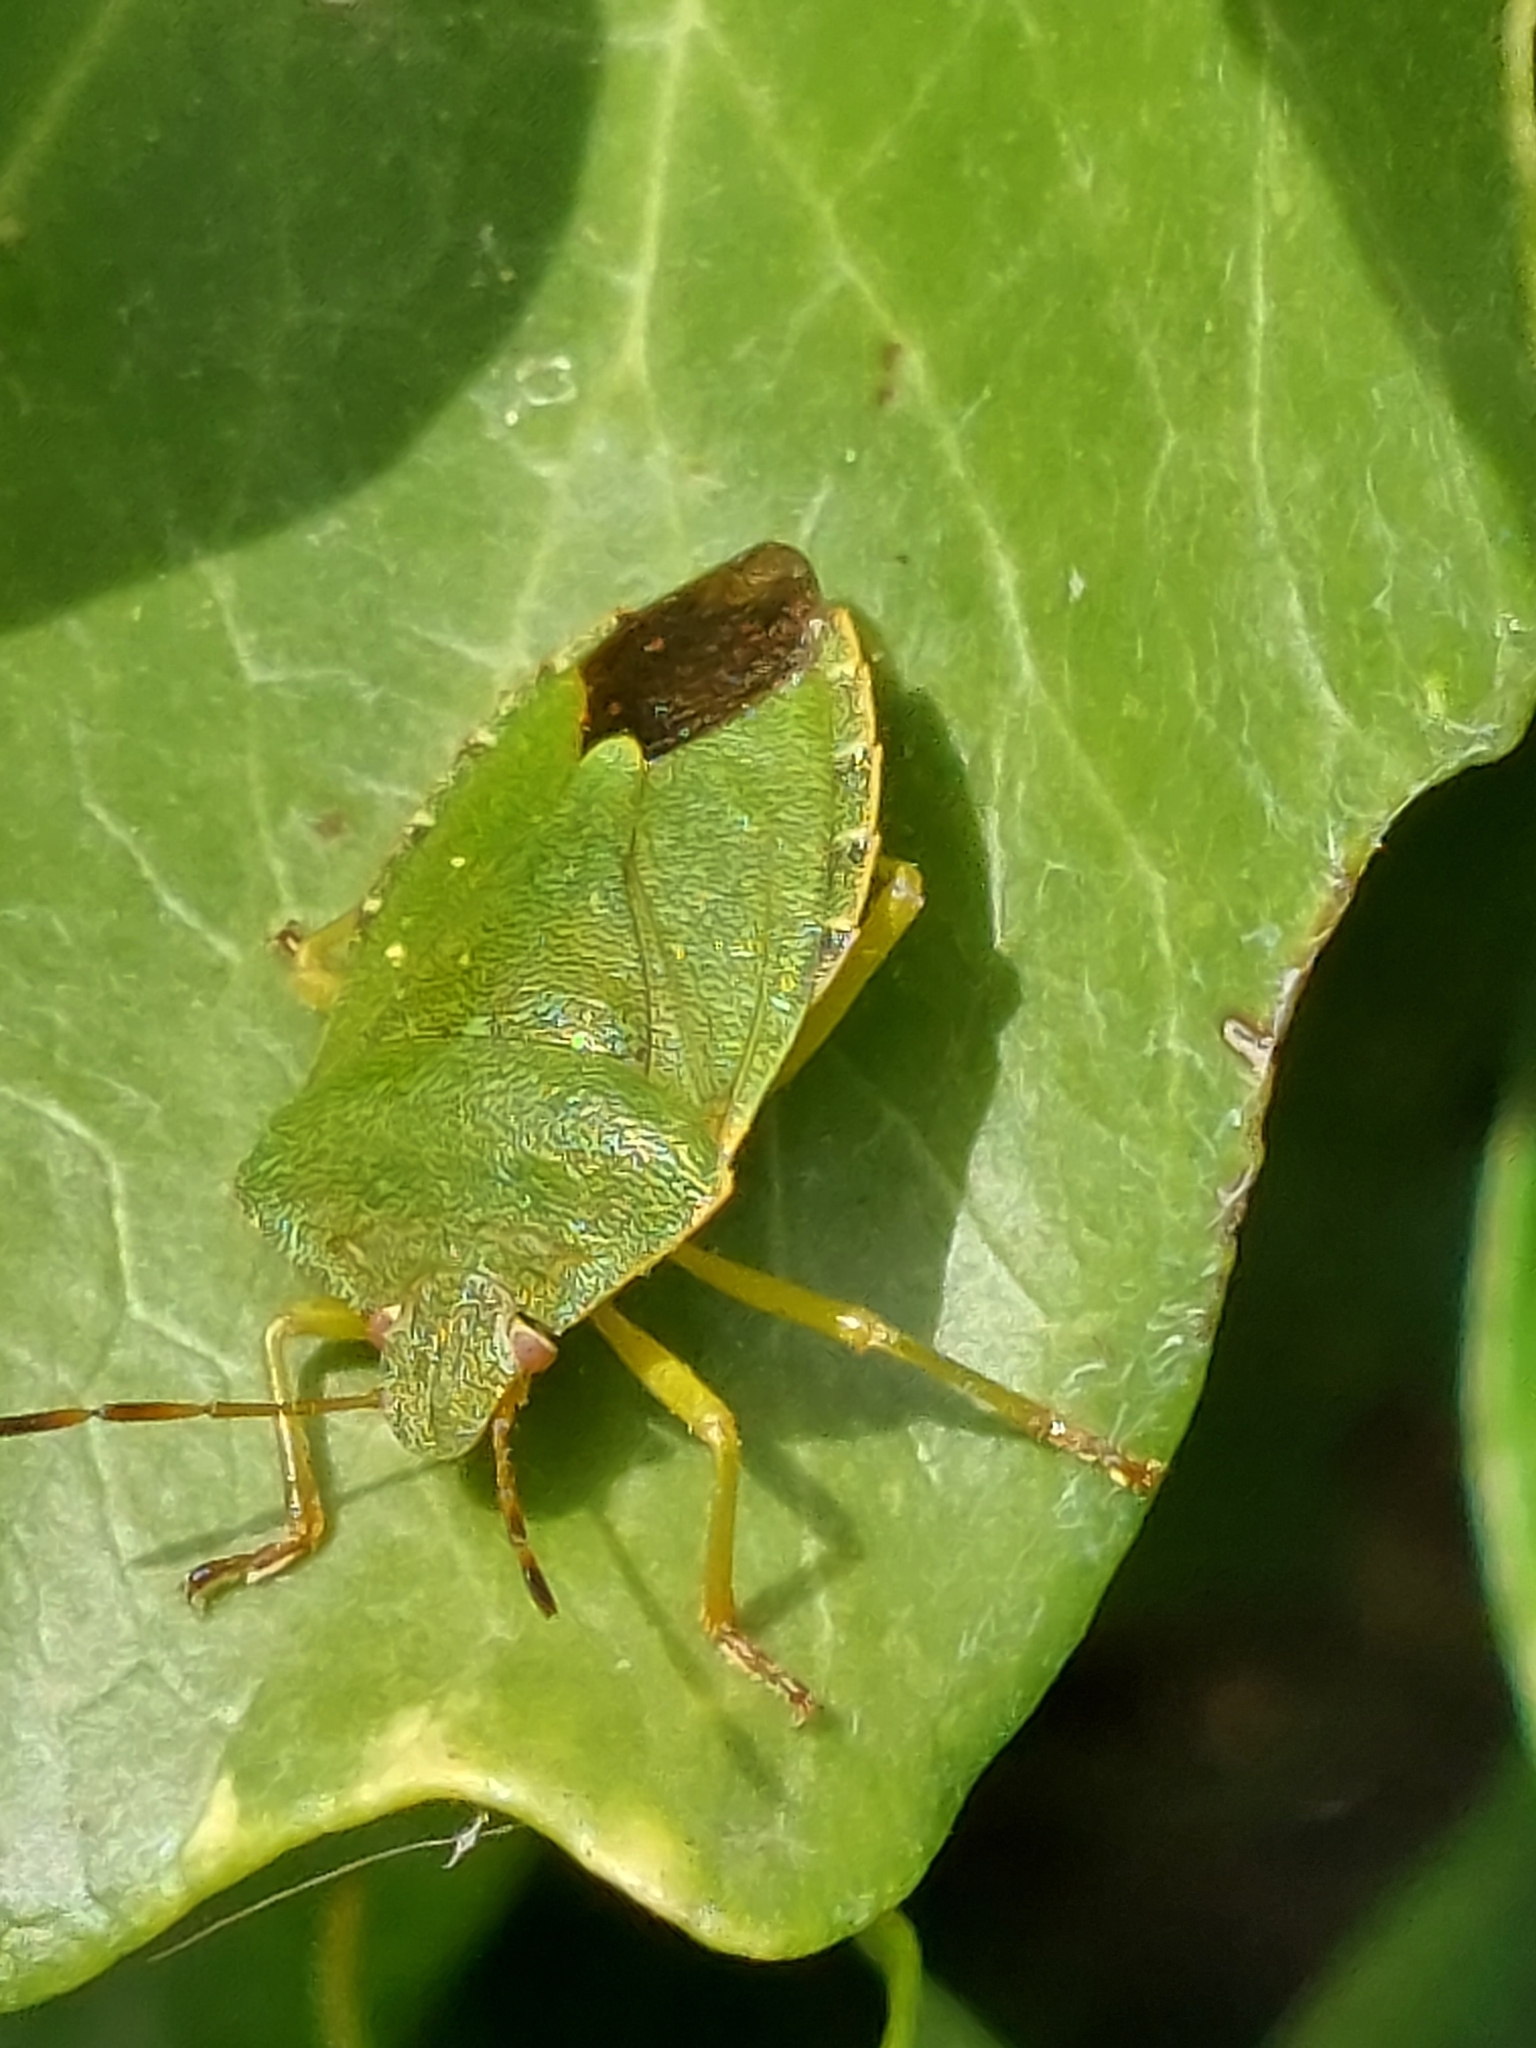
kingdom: Animalia
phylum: Arthropoda
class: Insecta
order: Hemiptera
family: Pentatomidae
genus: Palomena
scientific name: Palomena prasina
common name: Green shieldbug
